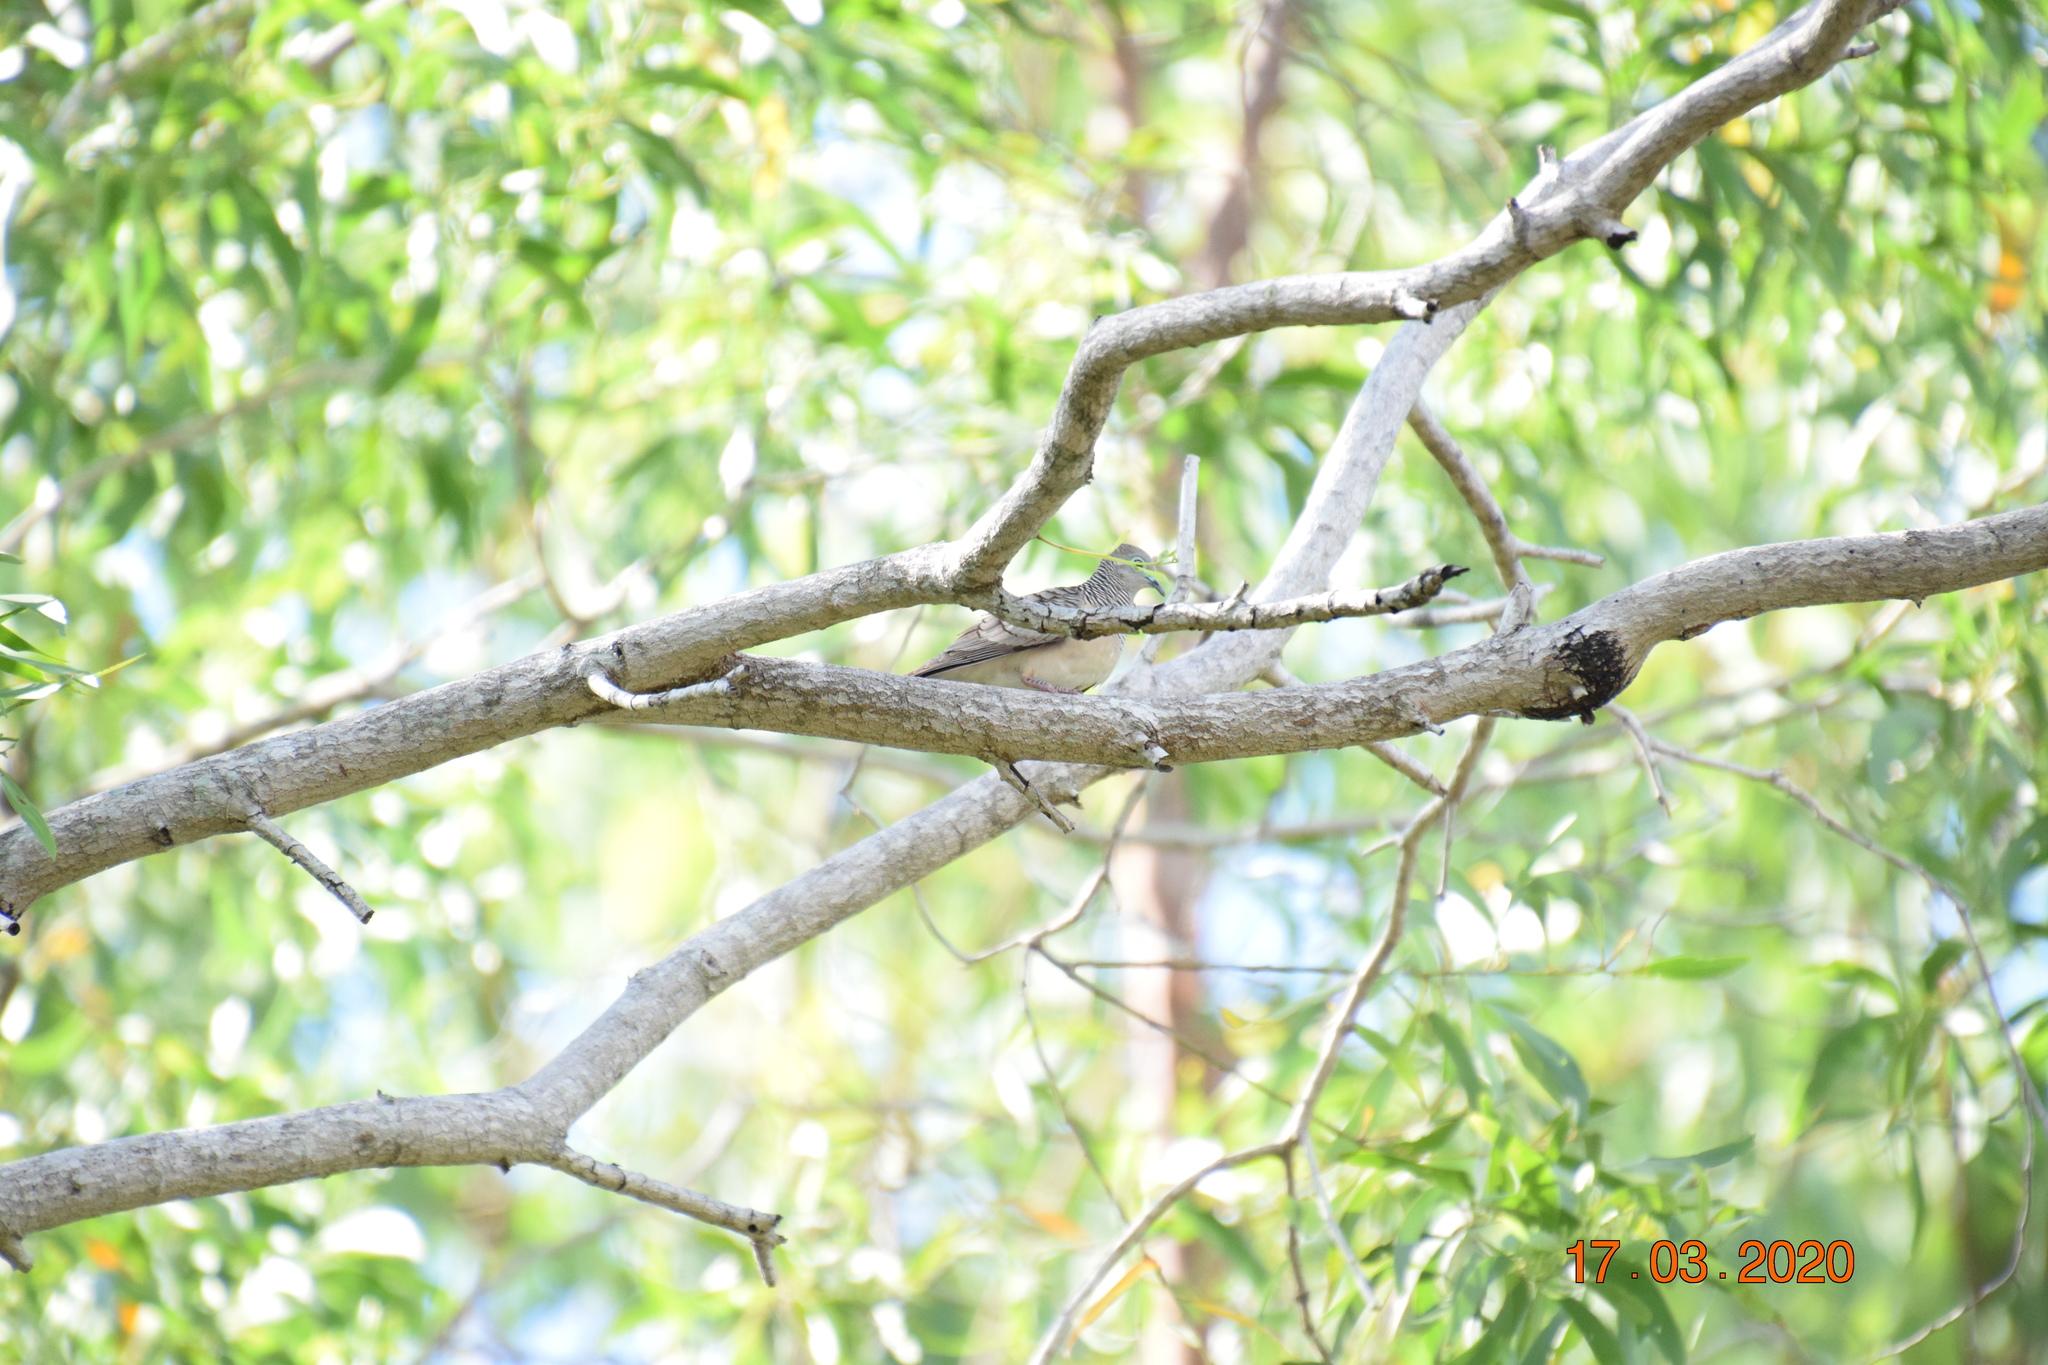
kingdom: Animalia
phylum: Chordata
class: Aves
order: Columbiformes
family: Columbidae
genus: Geopelia
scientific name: Geopelia placida
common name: Peaceful dove
